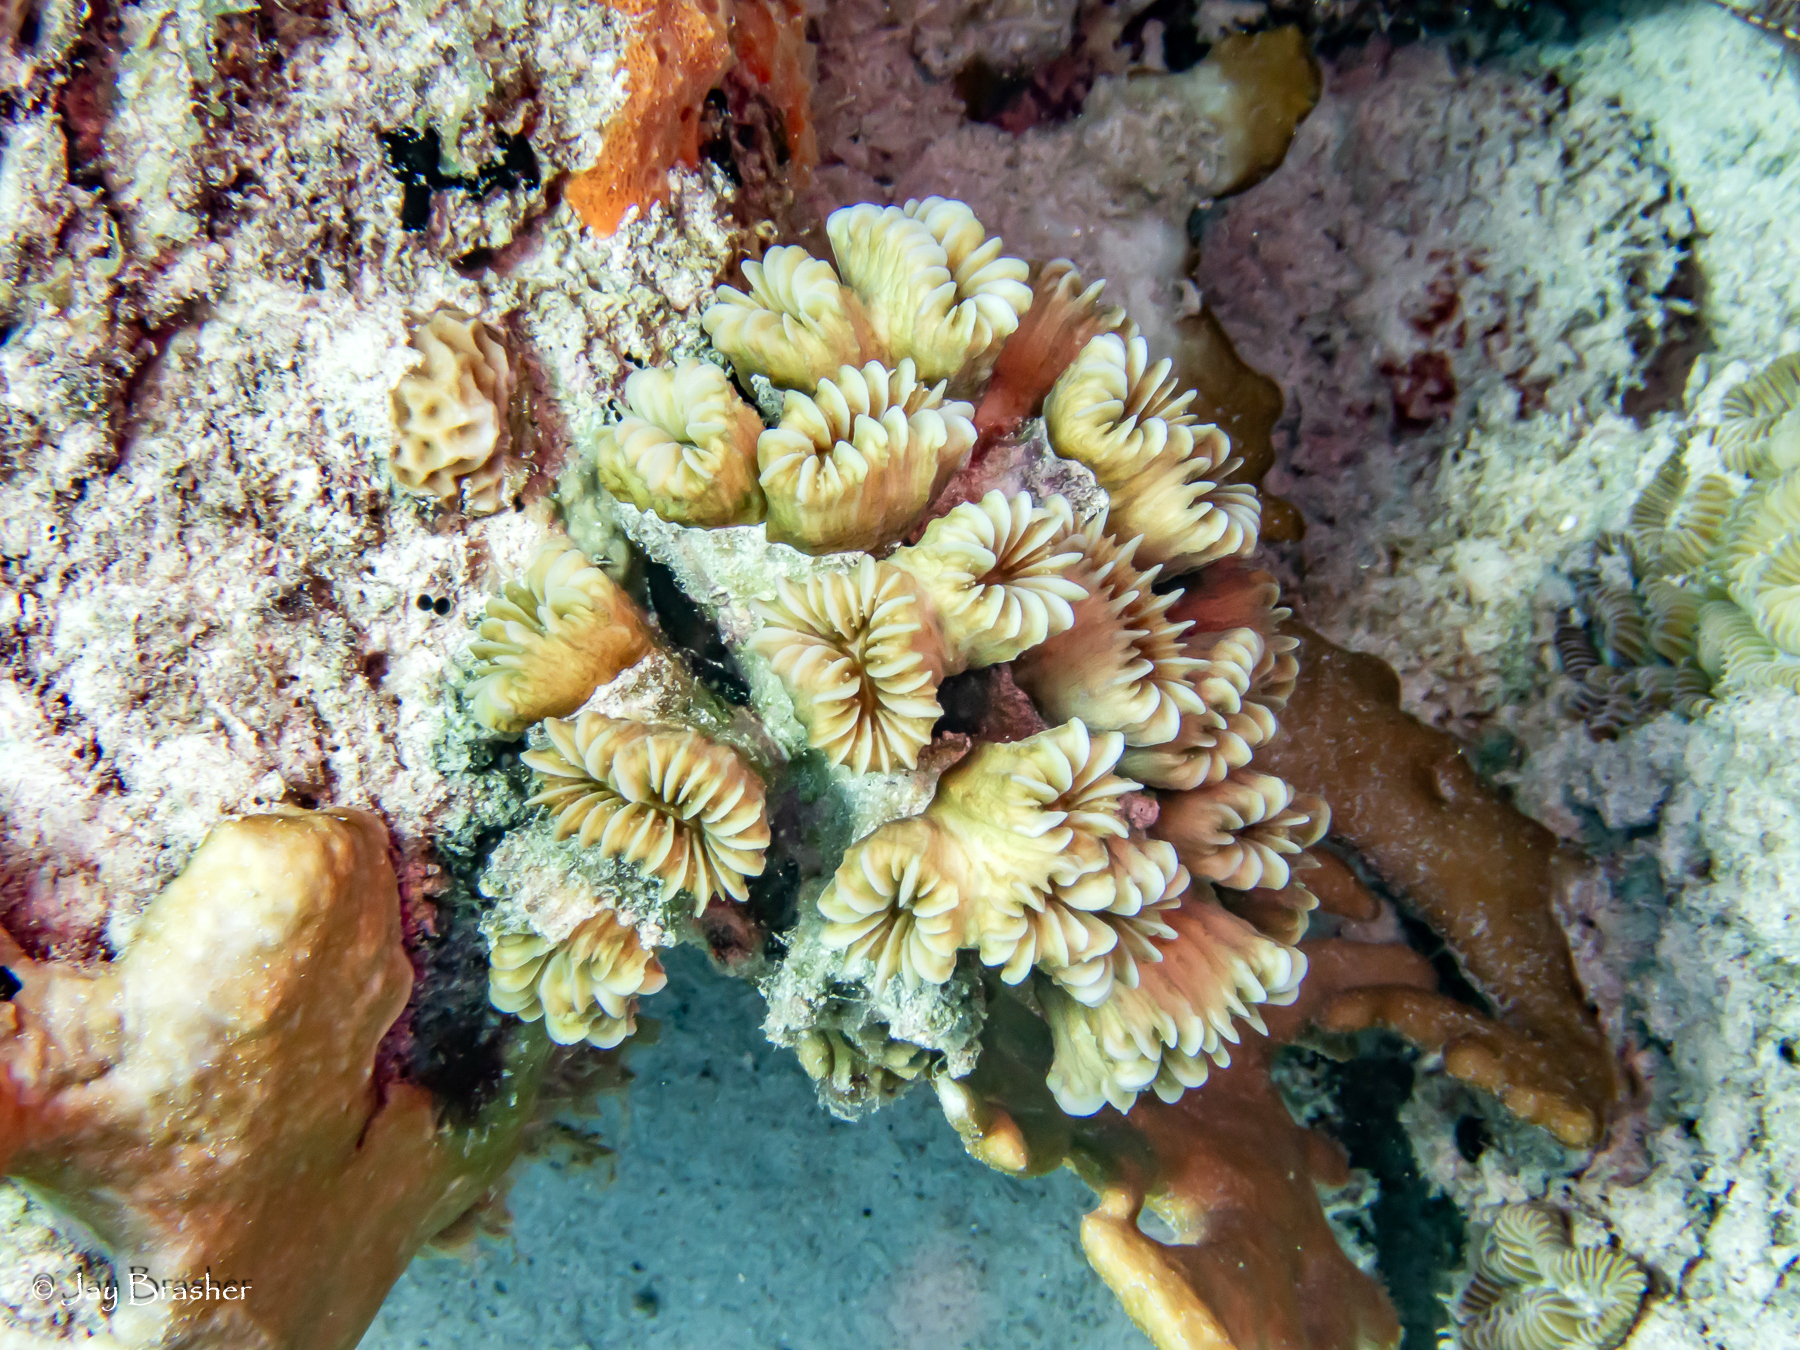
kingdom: Animalia
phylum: Cnidaria
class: Anthozoa
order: Scleractinia
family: Meandrinidae
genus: Eusmilia
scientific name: Eusmilia fastigiata
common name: Smooth flower coral
